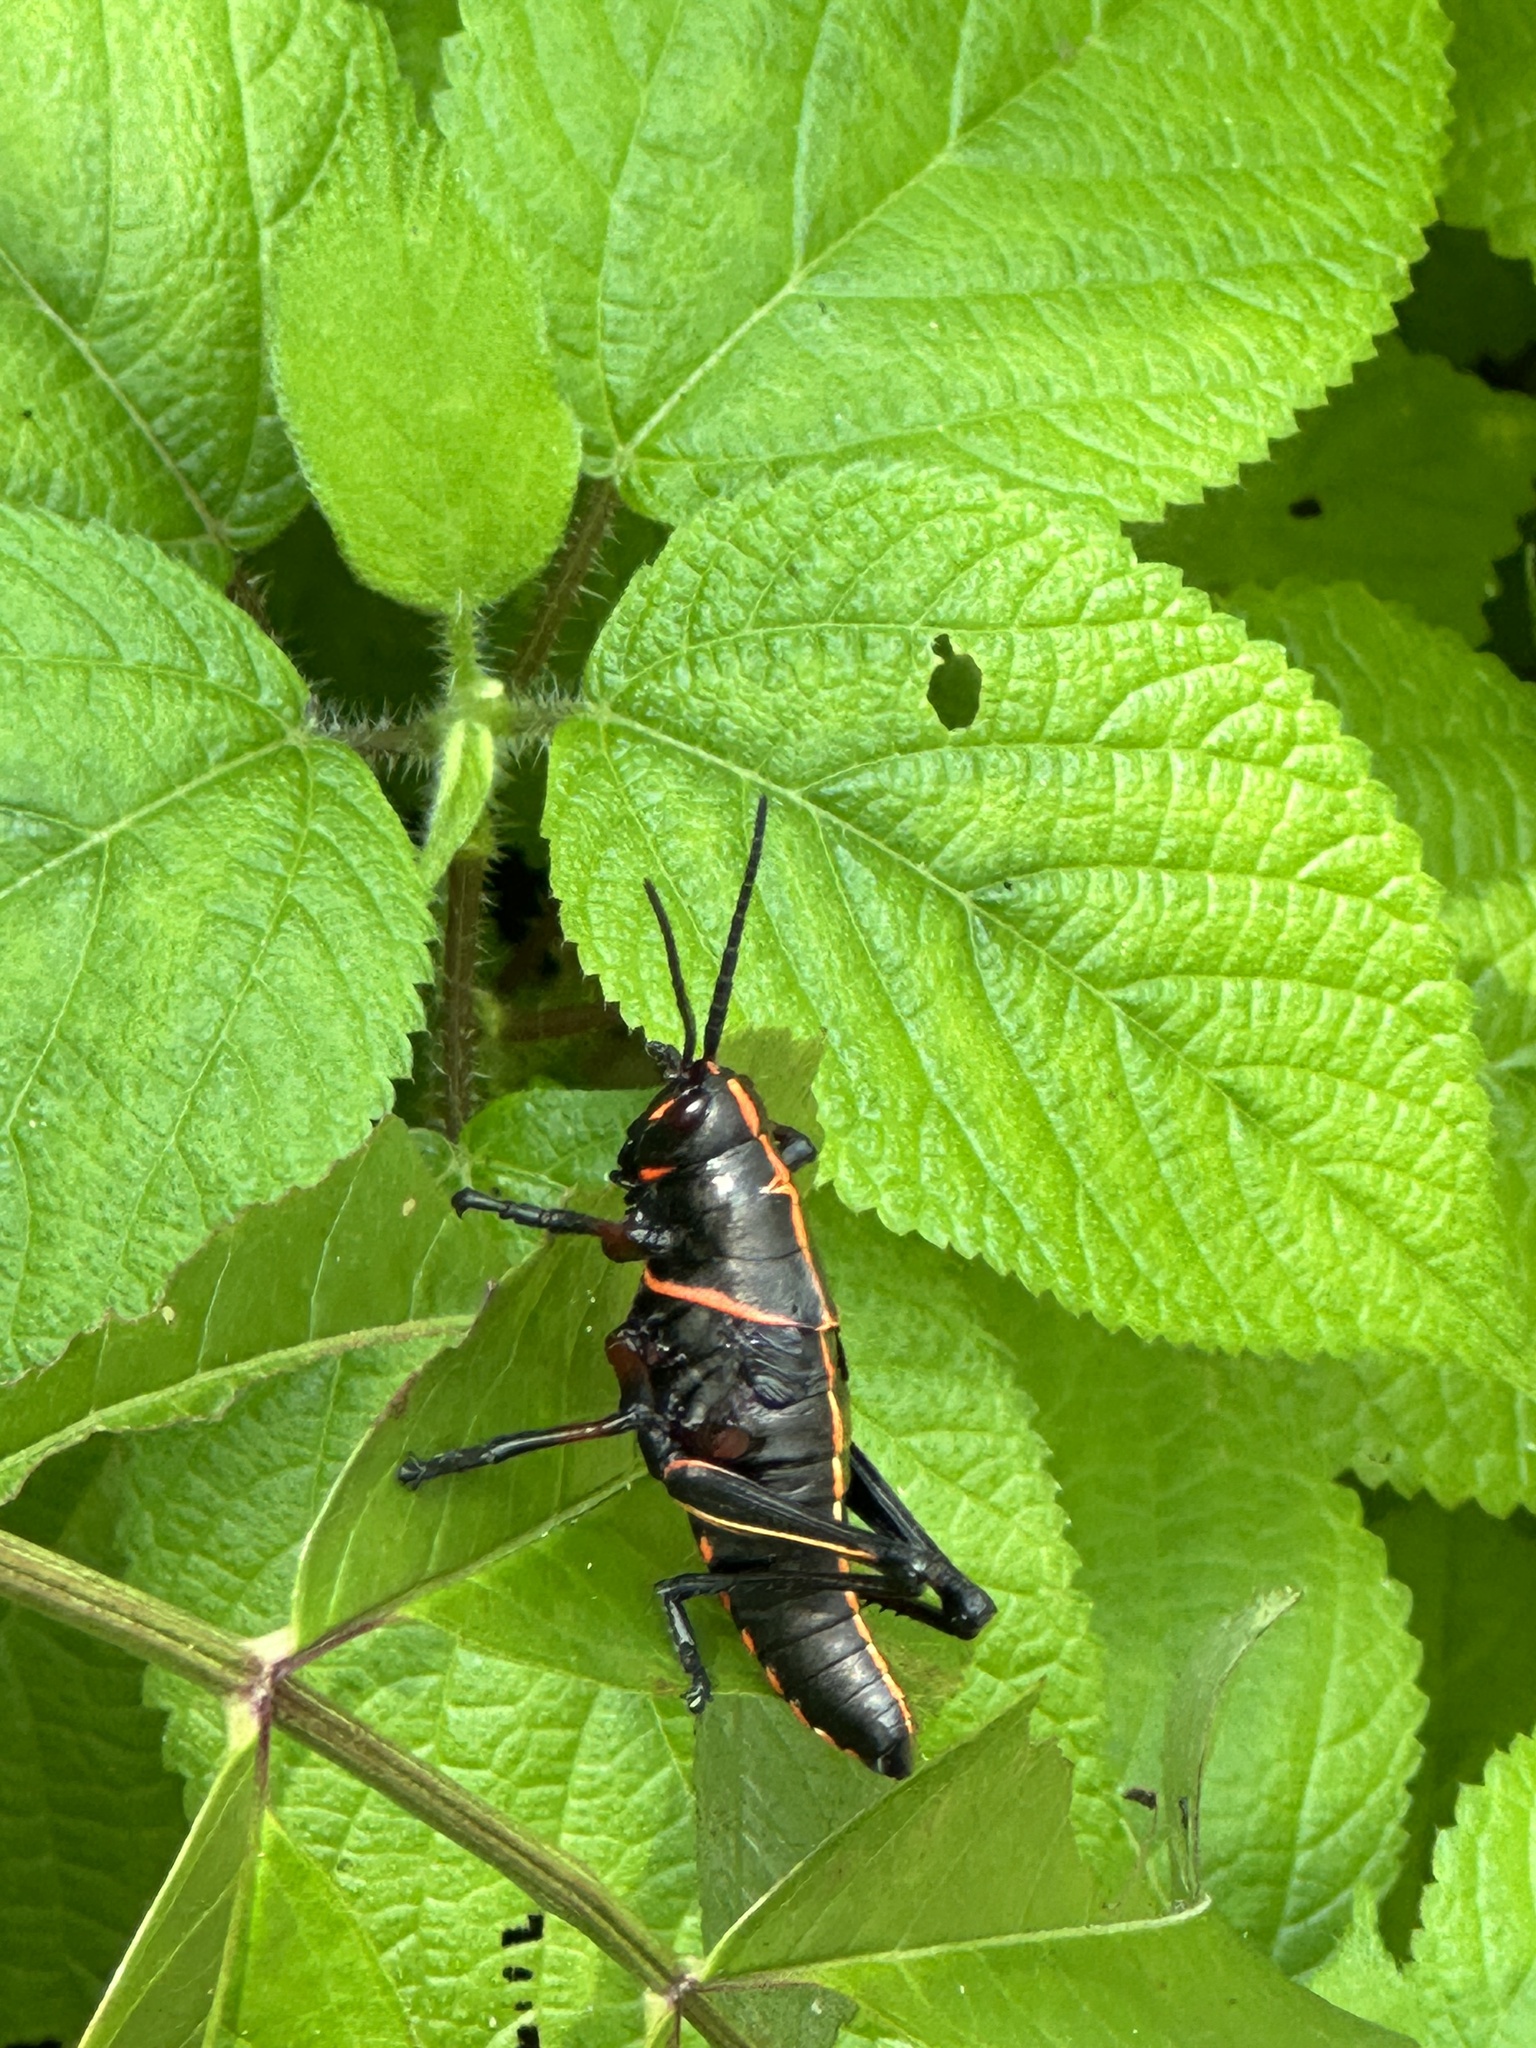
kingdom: Animalia
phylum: Arthropoda
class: Insecta
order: Orthoptera
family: Romaleidae
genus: Romalea
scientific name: Romalea microptera
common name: Eastern lubber grasshopper
